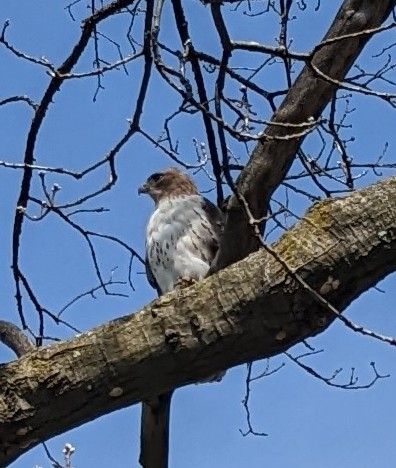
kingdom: Animalia
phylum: Chordata
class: Aves
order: Accipitriformes
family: Accipitridae
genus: Buteo
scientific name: Buteo jamaicensis
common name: Red-tailed hawk
